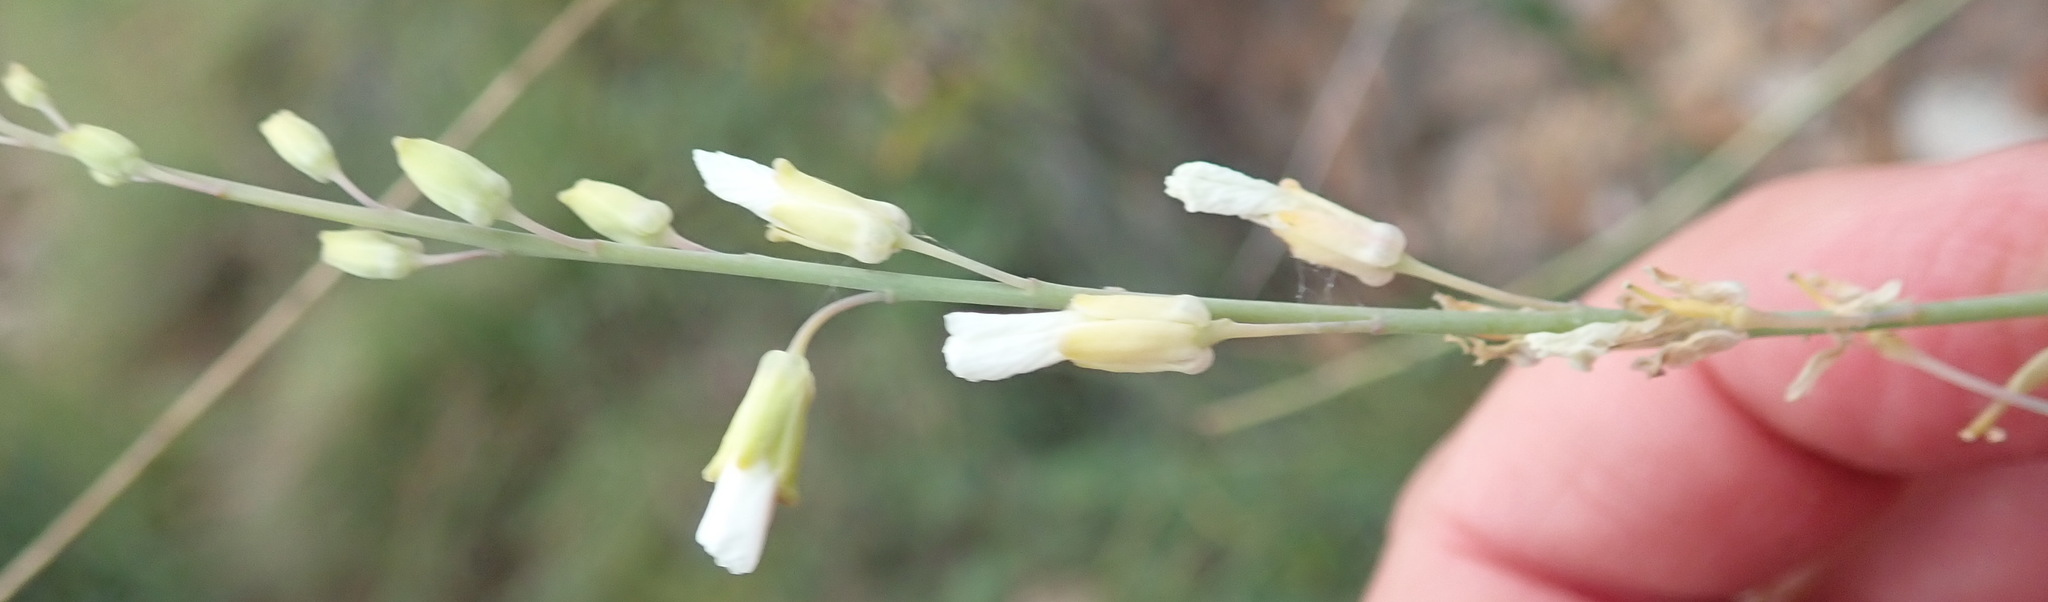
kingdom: Plantae
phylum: Tracheophyta
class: Magnoliopsida
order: Brassicales
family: Brassicaceae
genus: Heliophila
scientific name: Heliophila glauca
